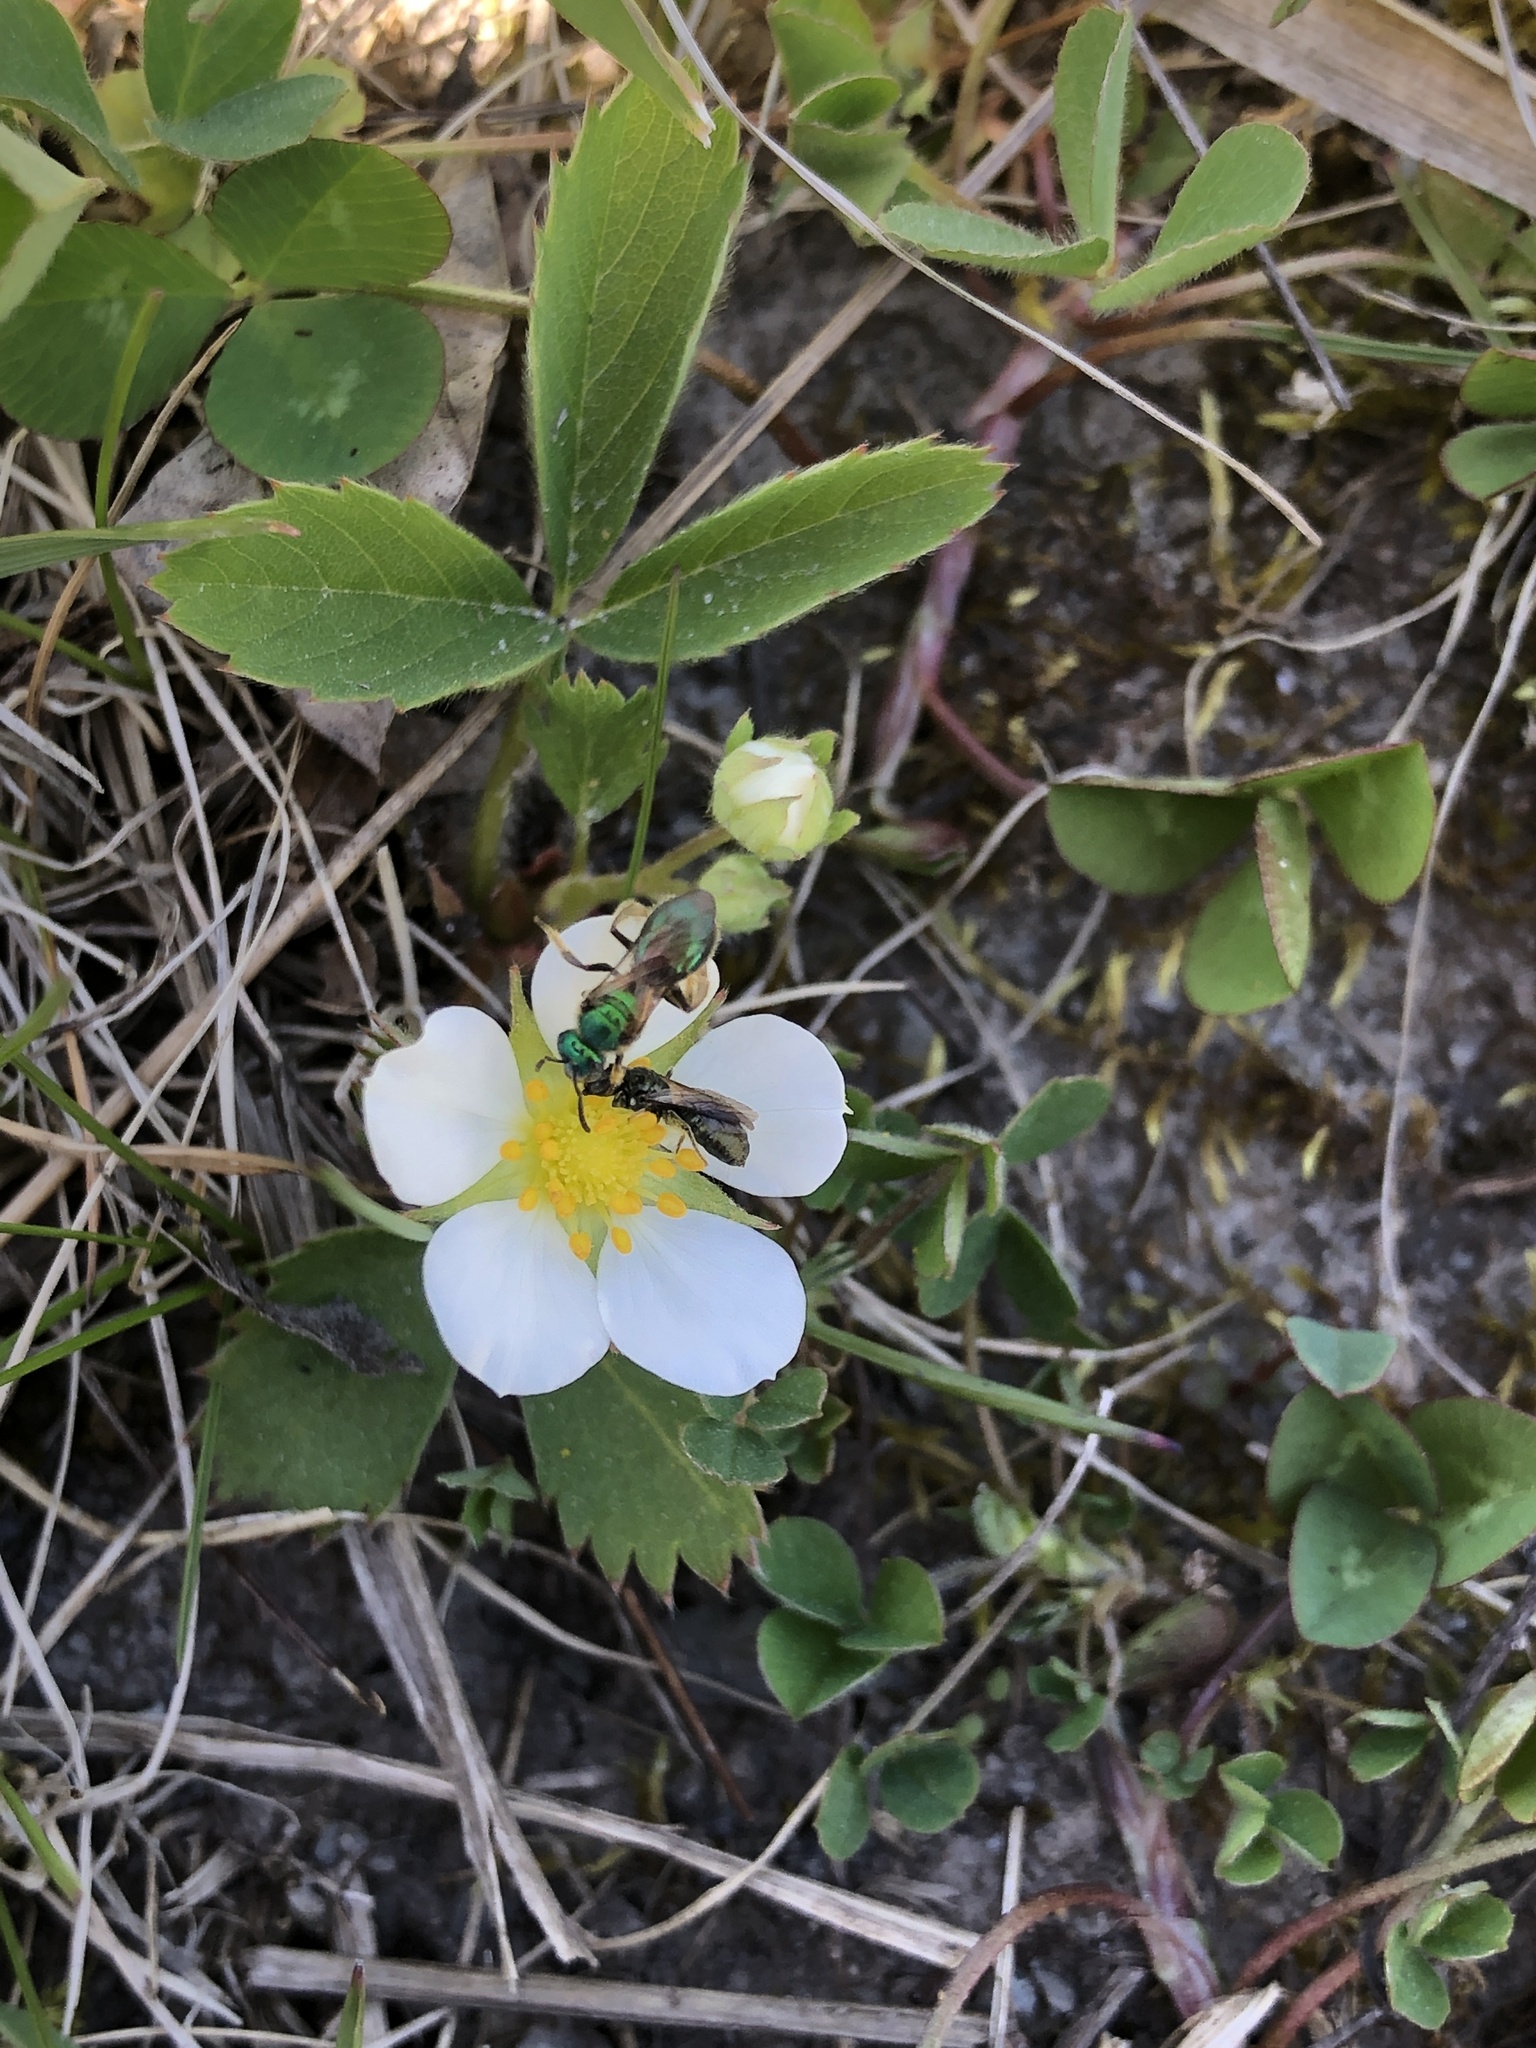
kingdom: Plantae
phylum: Tracheophyta
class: Magnoliopsida
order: Rosales
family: Rosaceae
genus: Fragaria
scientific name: Fragaria virginiana
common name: Thickleaved wild strawberry
